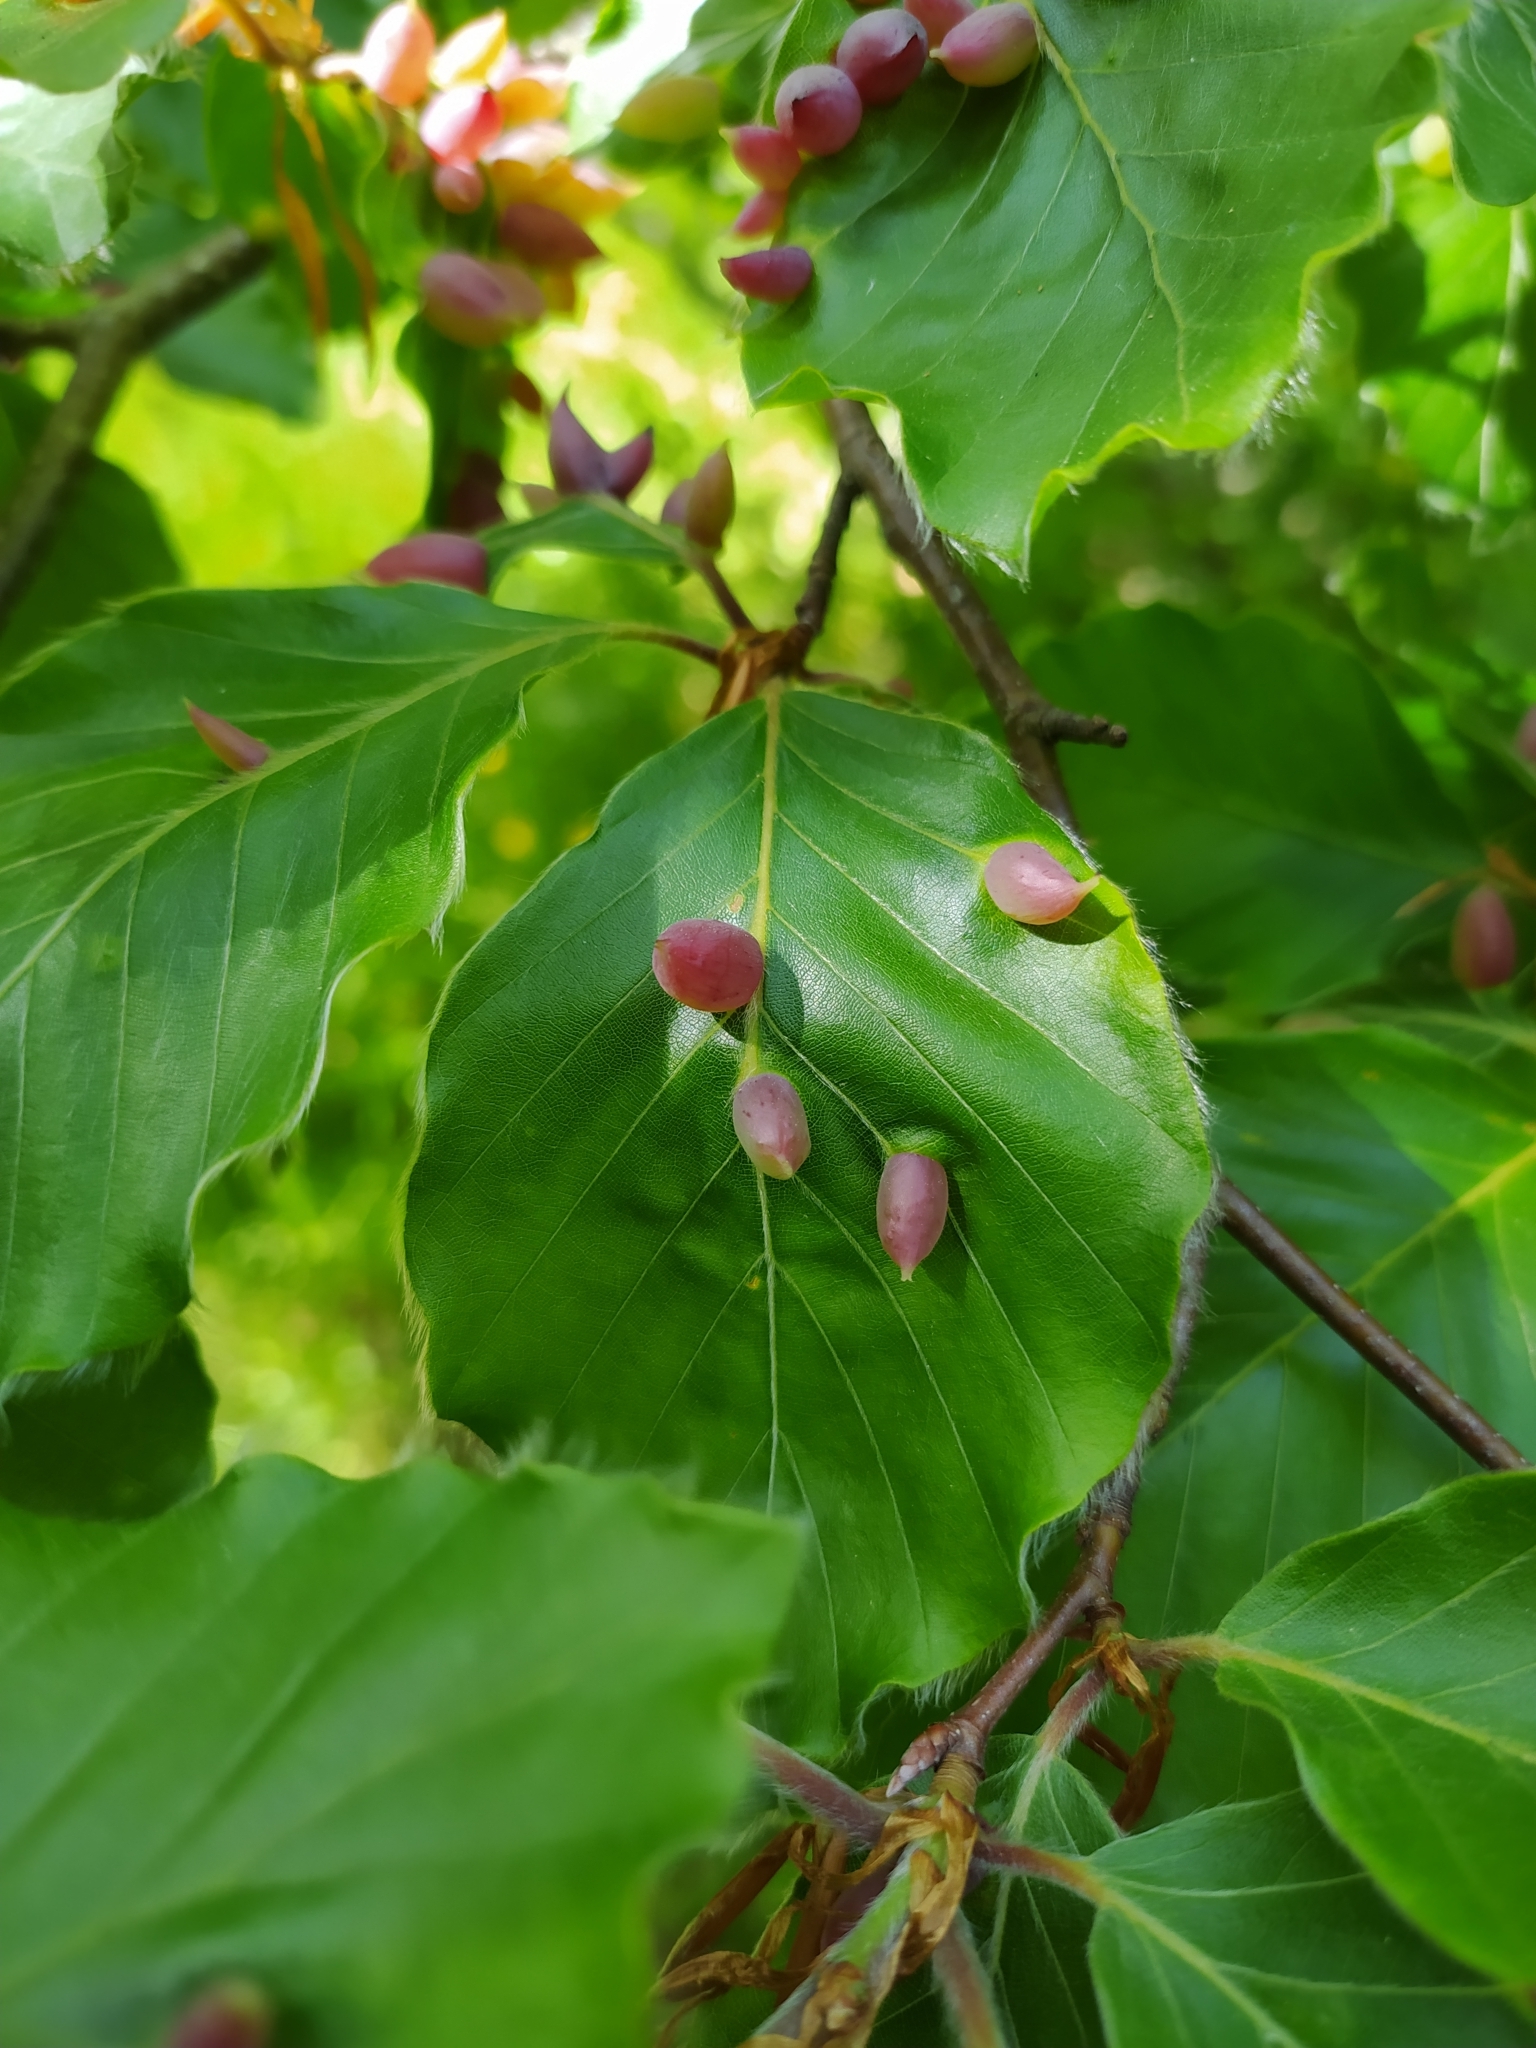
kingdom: Animalia
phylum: Arthropoda
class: Insecta
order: Diptera
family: Cecidomyiidae
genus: Mikiola
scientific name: Mikiola fagi
